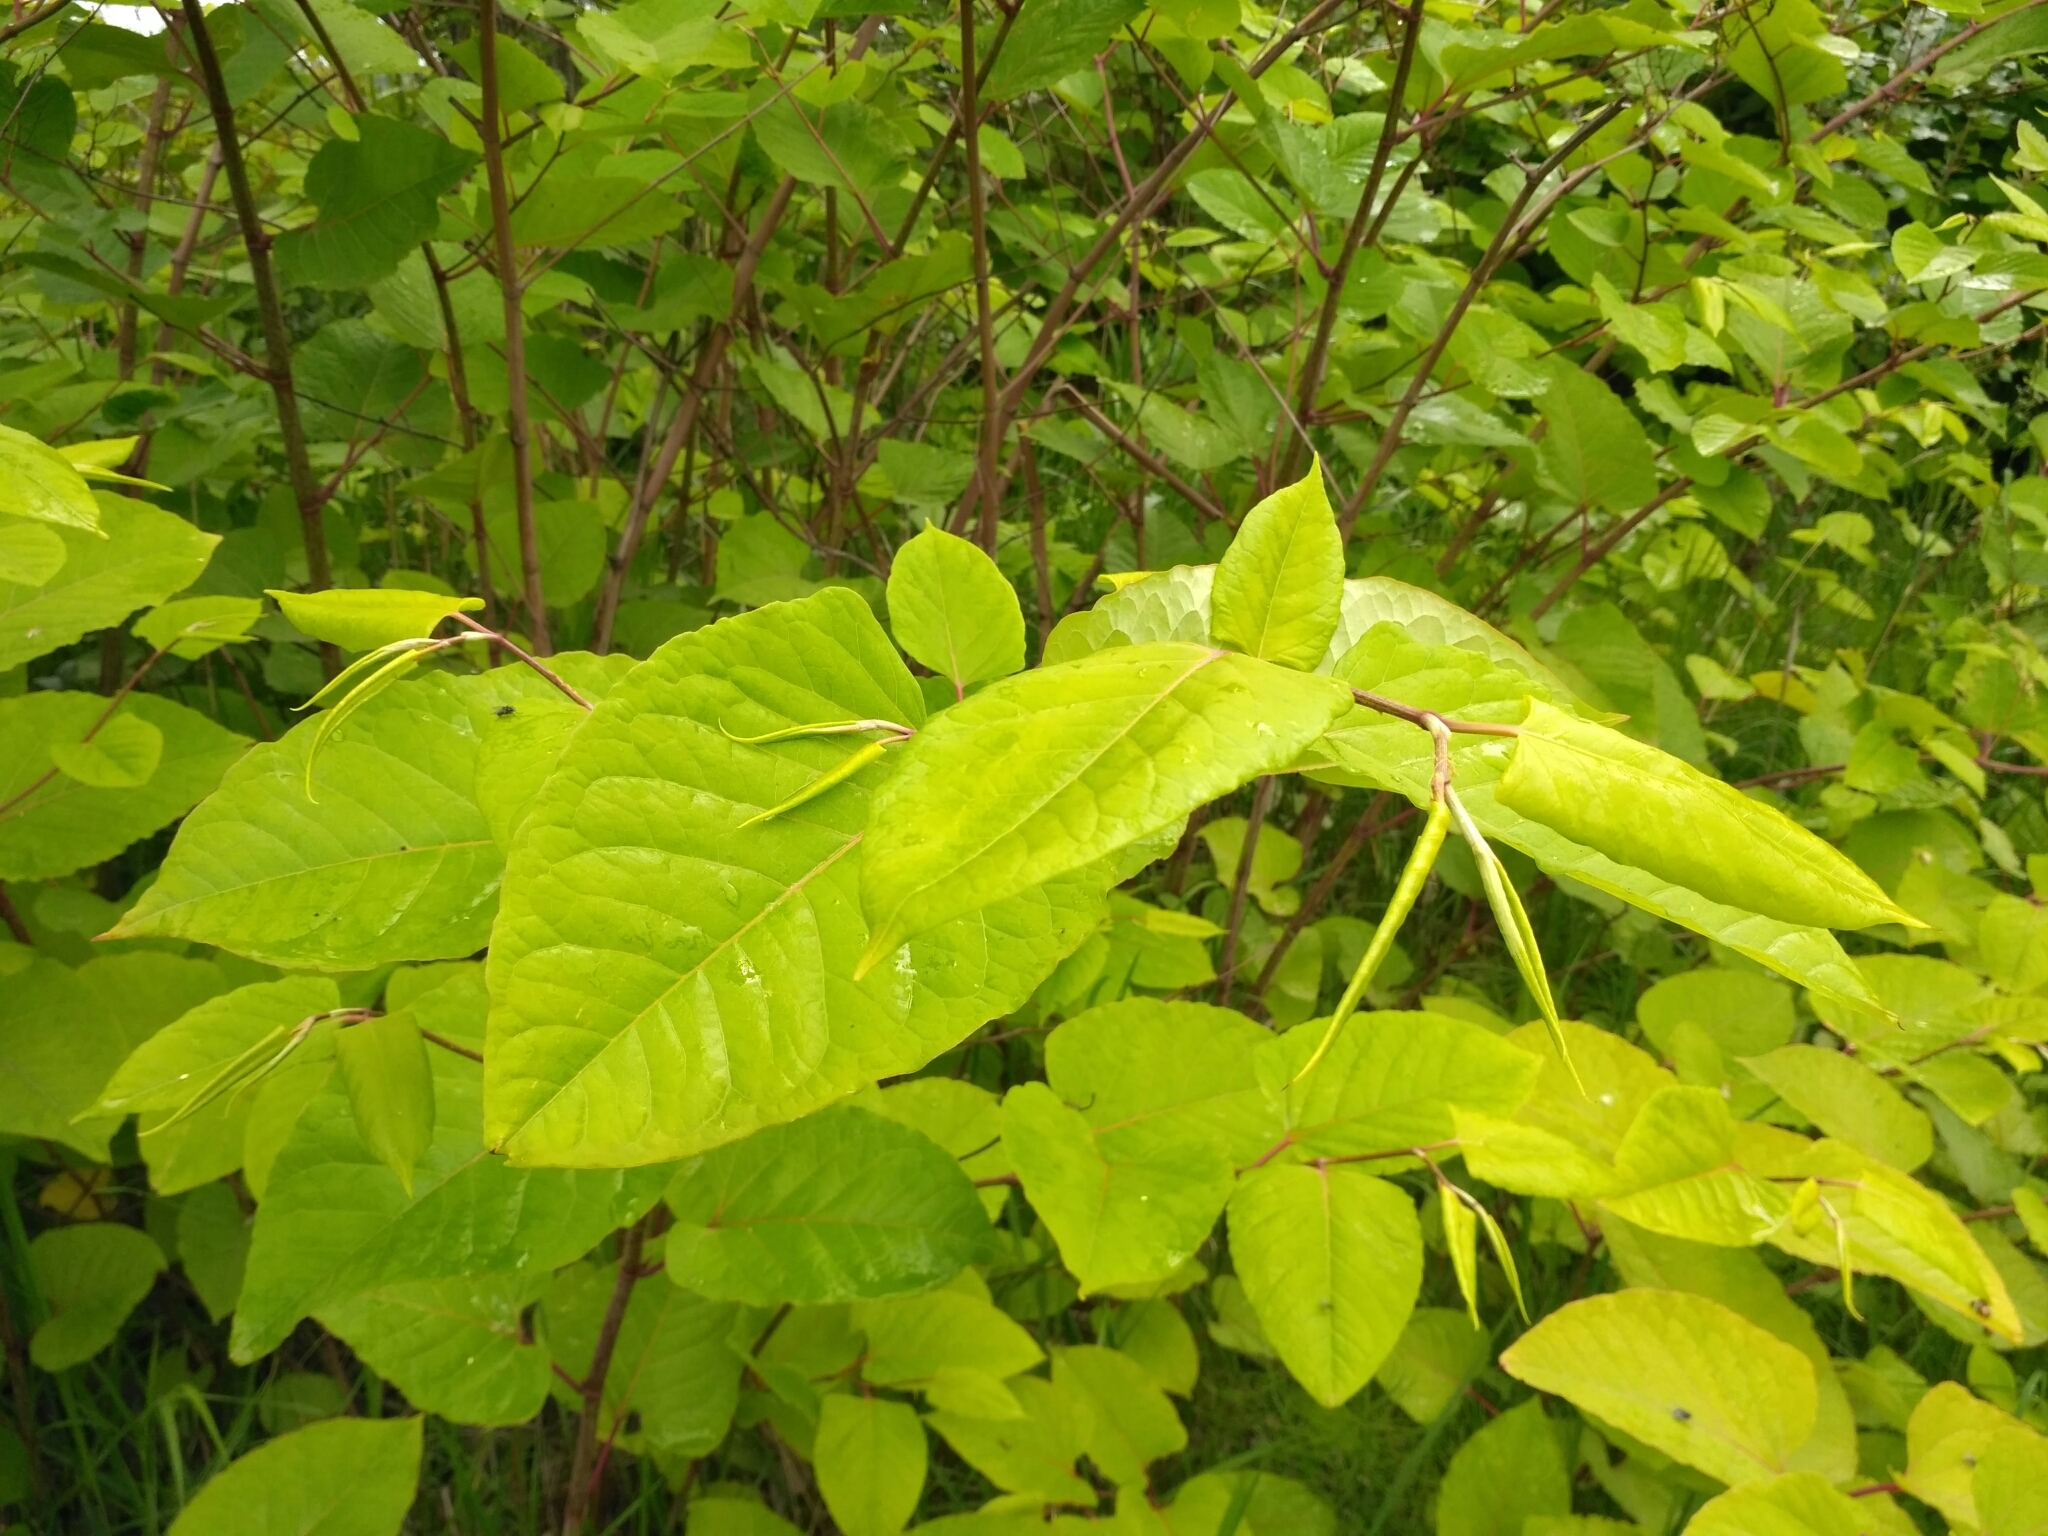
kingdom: Plantae
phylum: Tracheophyta
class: Magnoliopsida
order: Caryophyllales
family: Polygonaceae
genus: Reynoutria
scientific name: Reynoutria bohemica
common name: Bohemian knotweed
